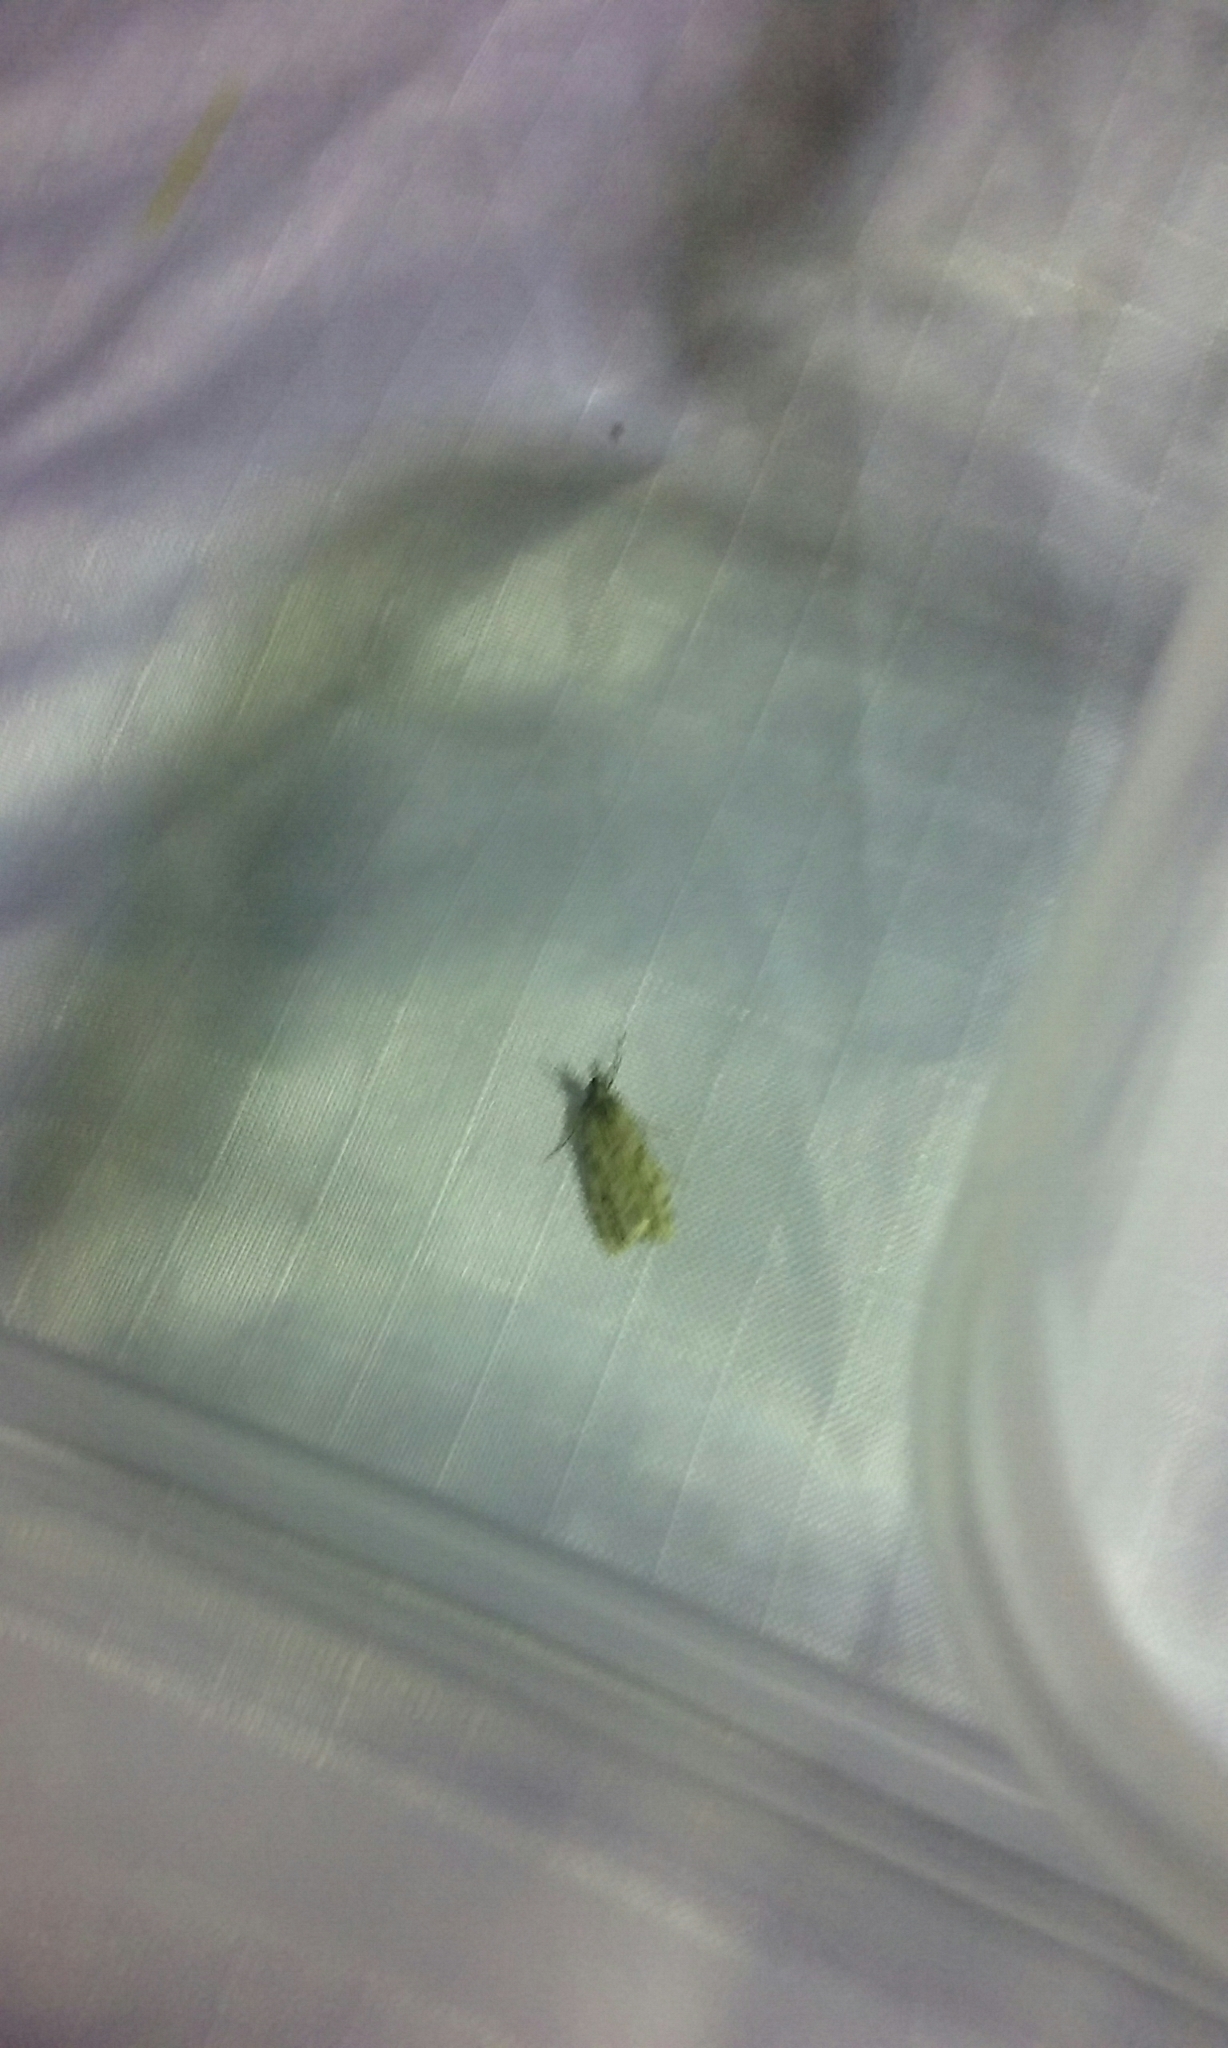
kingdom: Animalia
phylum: Arthropoda
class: Insecta
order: Lepidoptera
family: Crambidae
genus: Eudonia
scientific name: Eudonia cymatias
